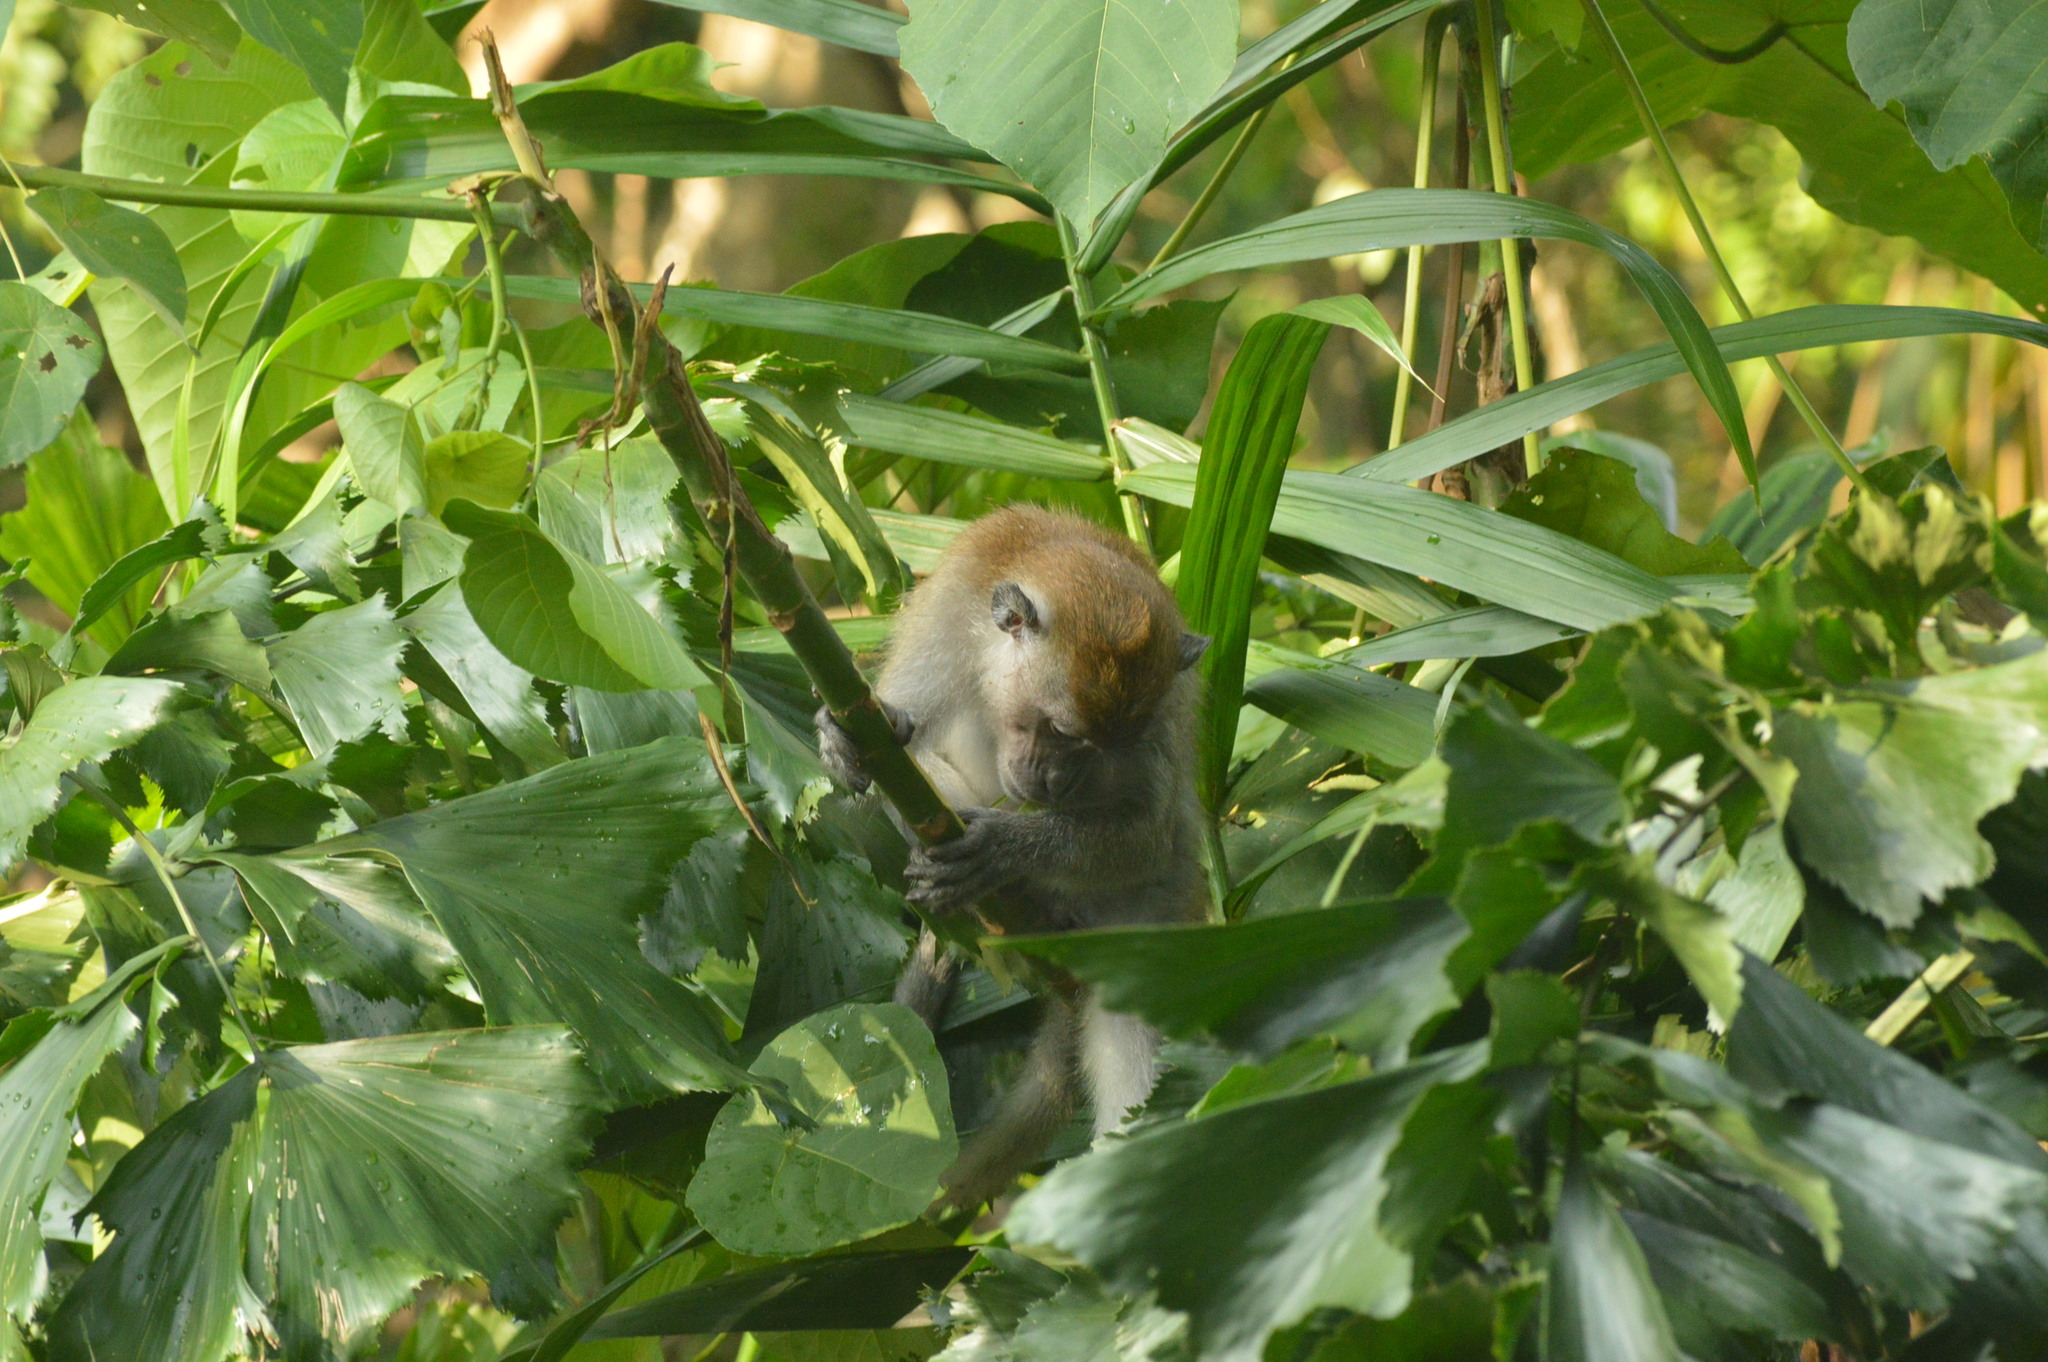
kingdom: Animalia
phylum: Chordata
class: Mammalia
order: Primates
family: Cercopithecidae
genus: Macaca
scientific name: Macaca fascicularis
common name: Crab-eating macaque
